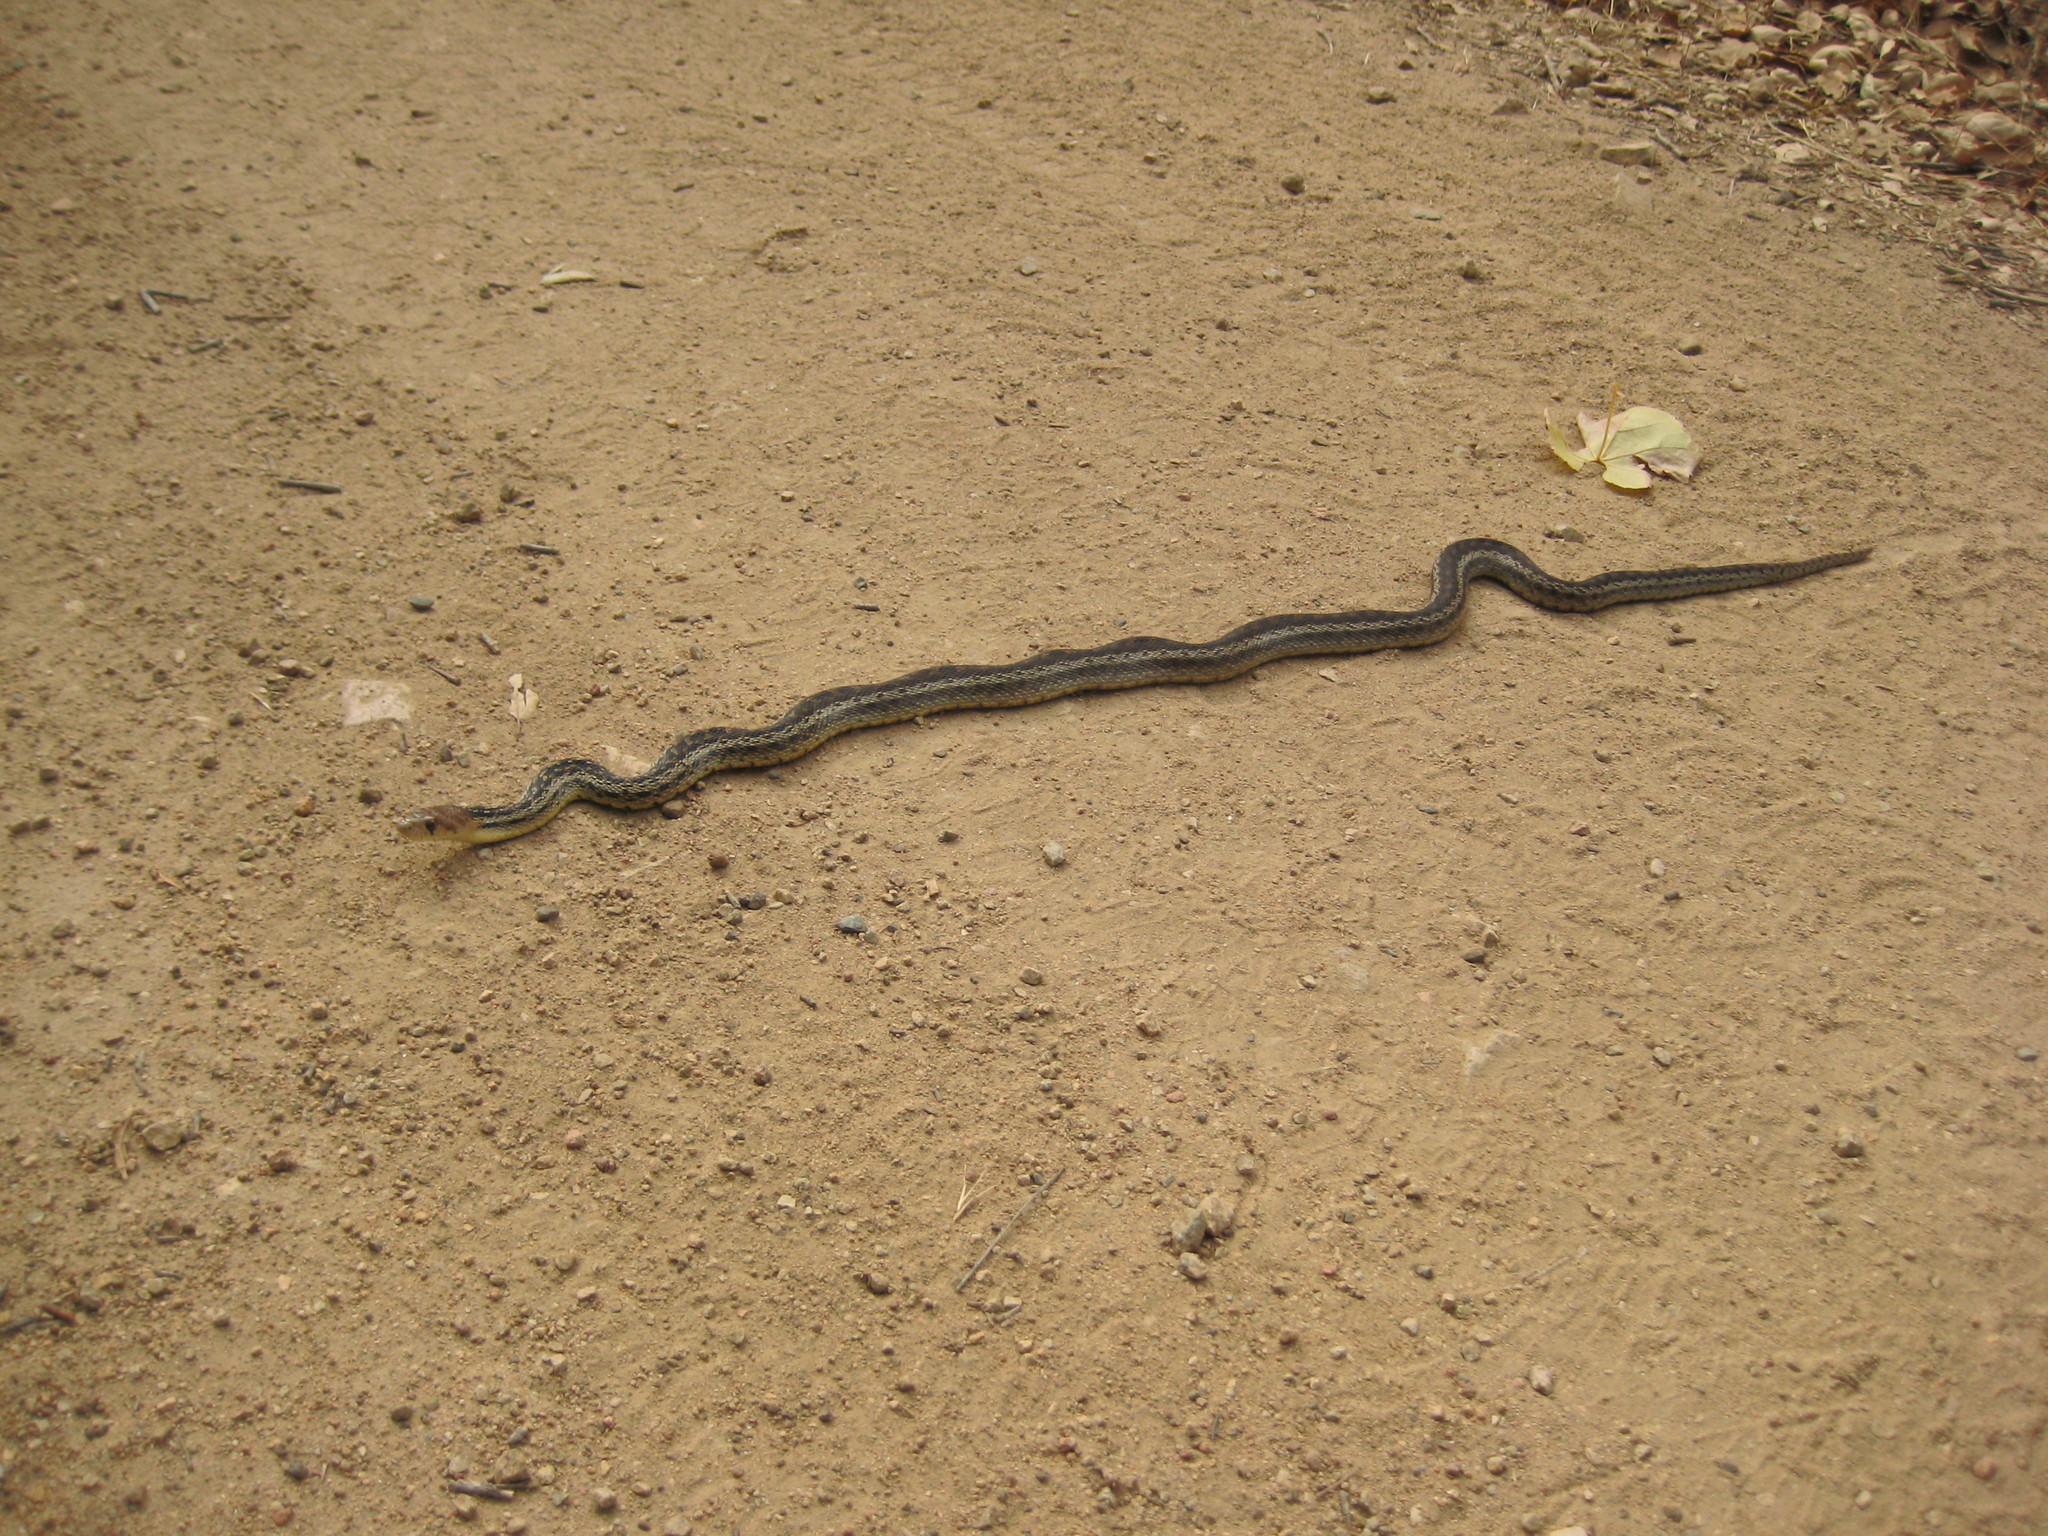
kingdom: Animalia
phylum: Chordata
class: Squamata
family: Colubridae
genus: Pituophis
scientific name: Pituophis catenifer
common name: Gopher snake
